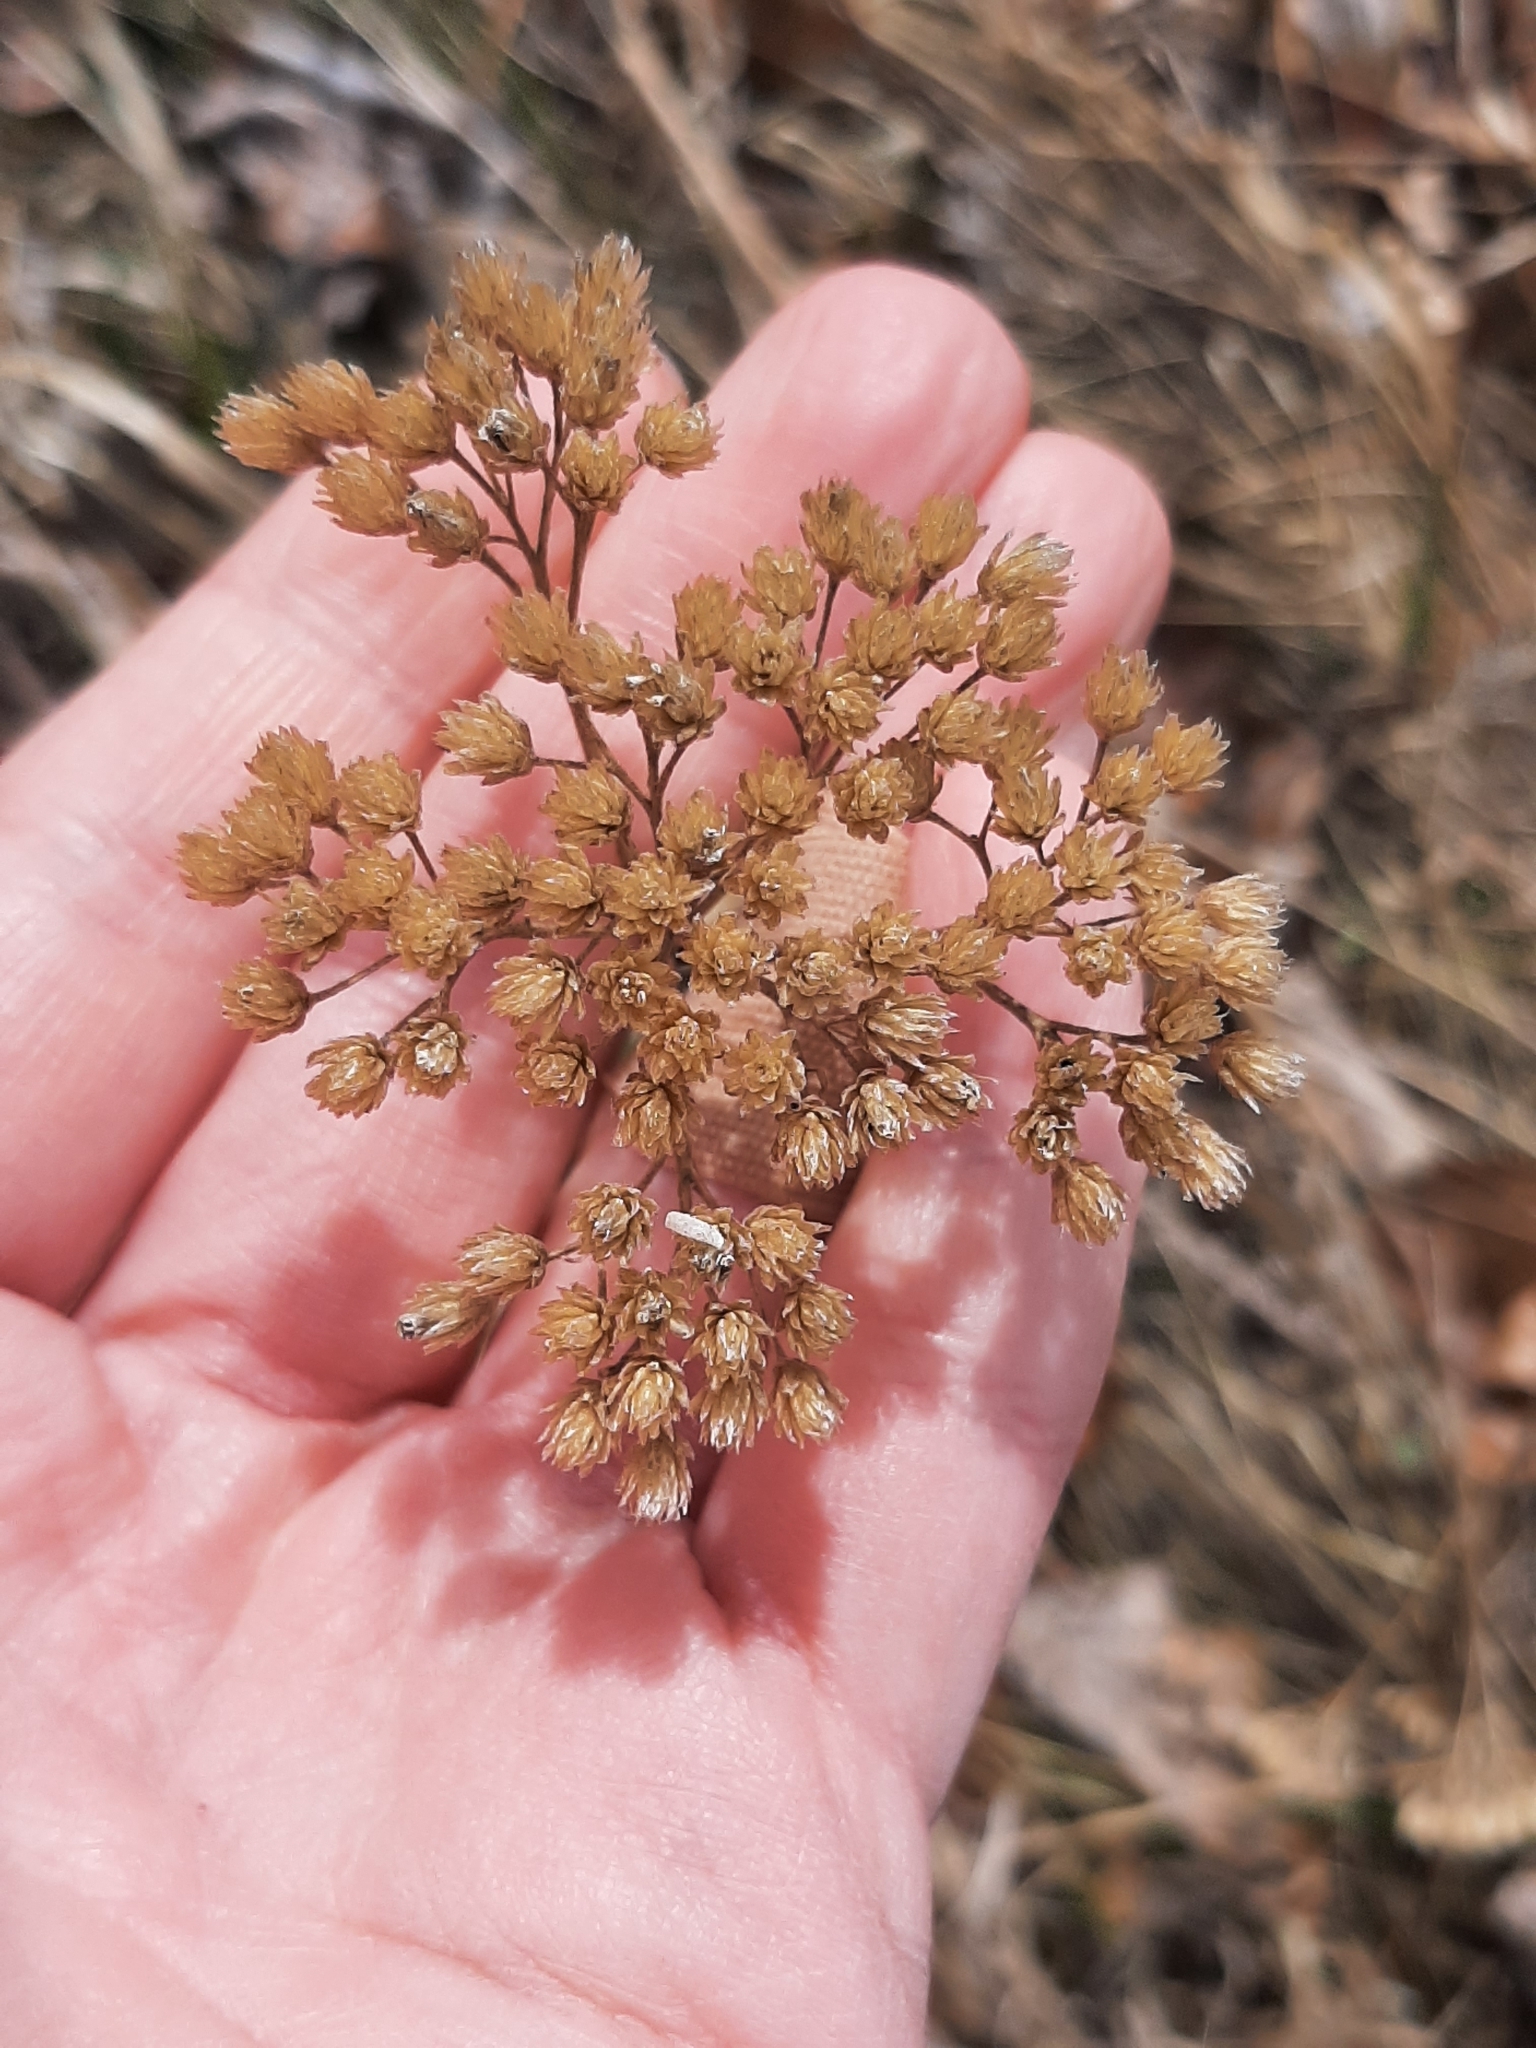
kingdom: Plantae
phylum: Tracheophyta
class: Magnoliopsida
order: Asterales
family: Asteraceae
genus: Achillea
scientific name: Achillea millefolium
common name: Yarrow
